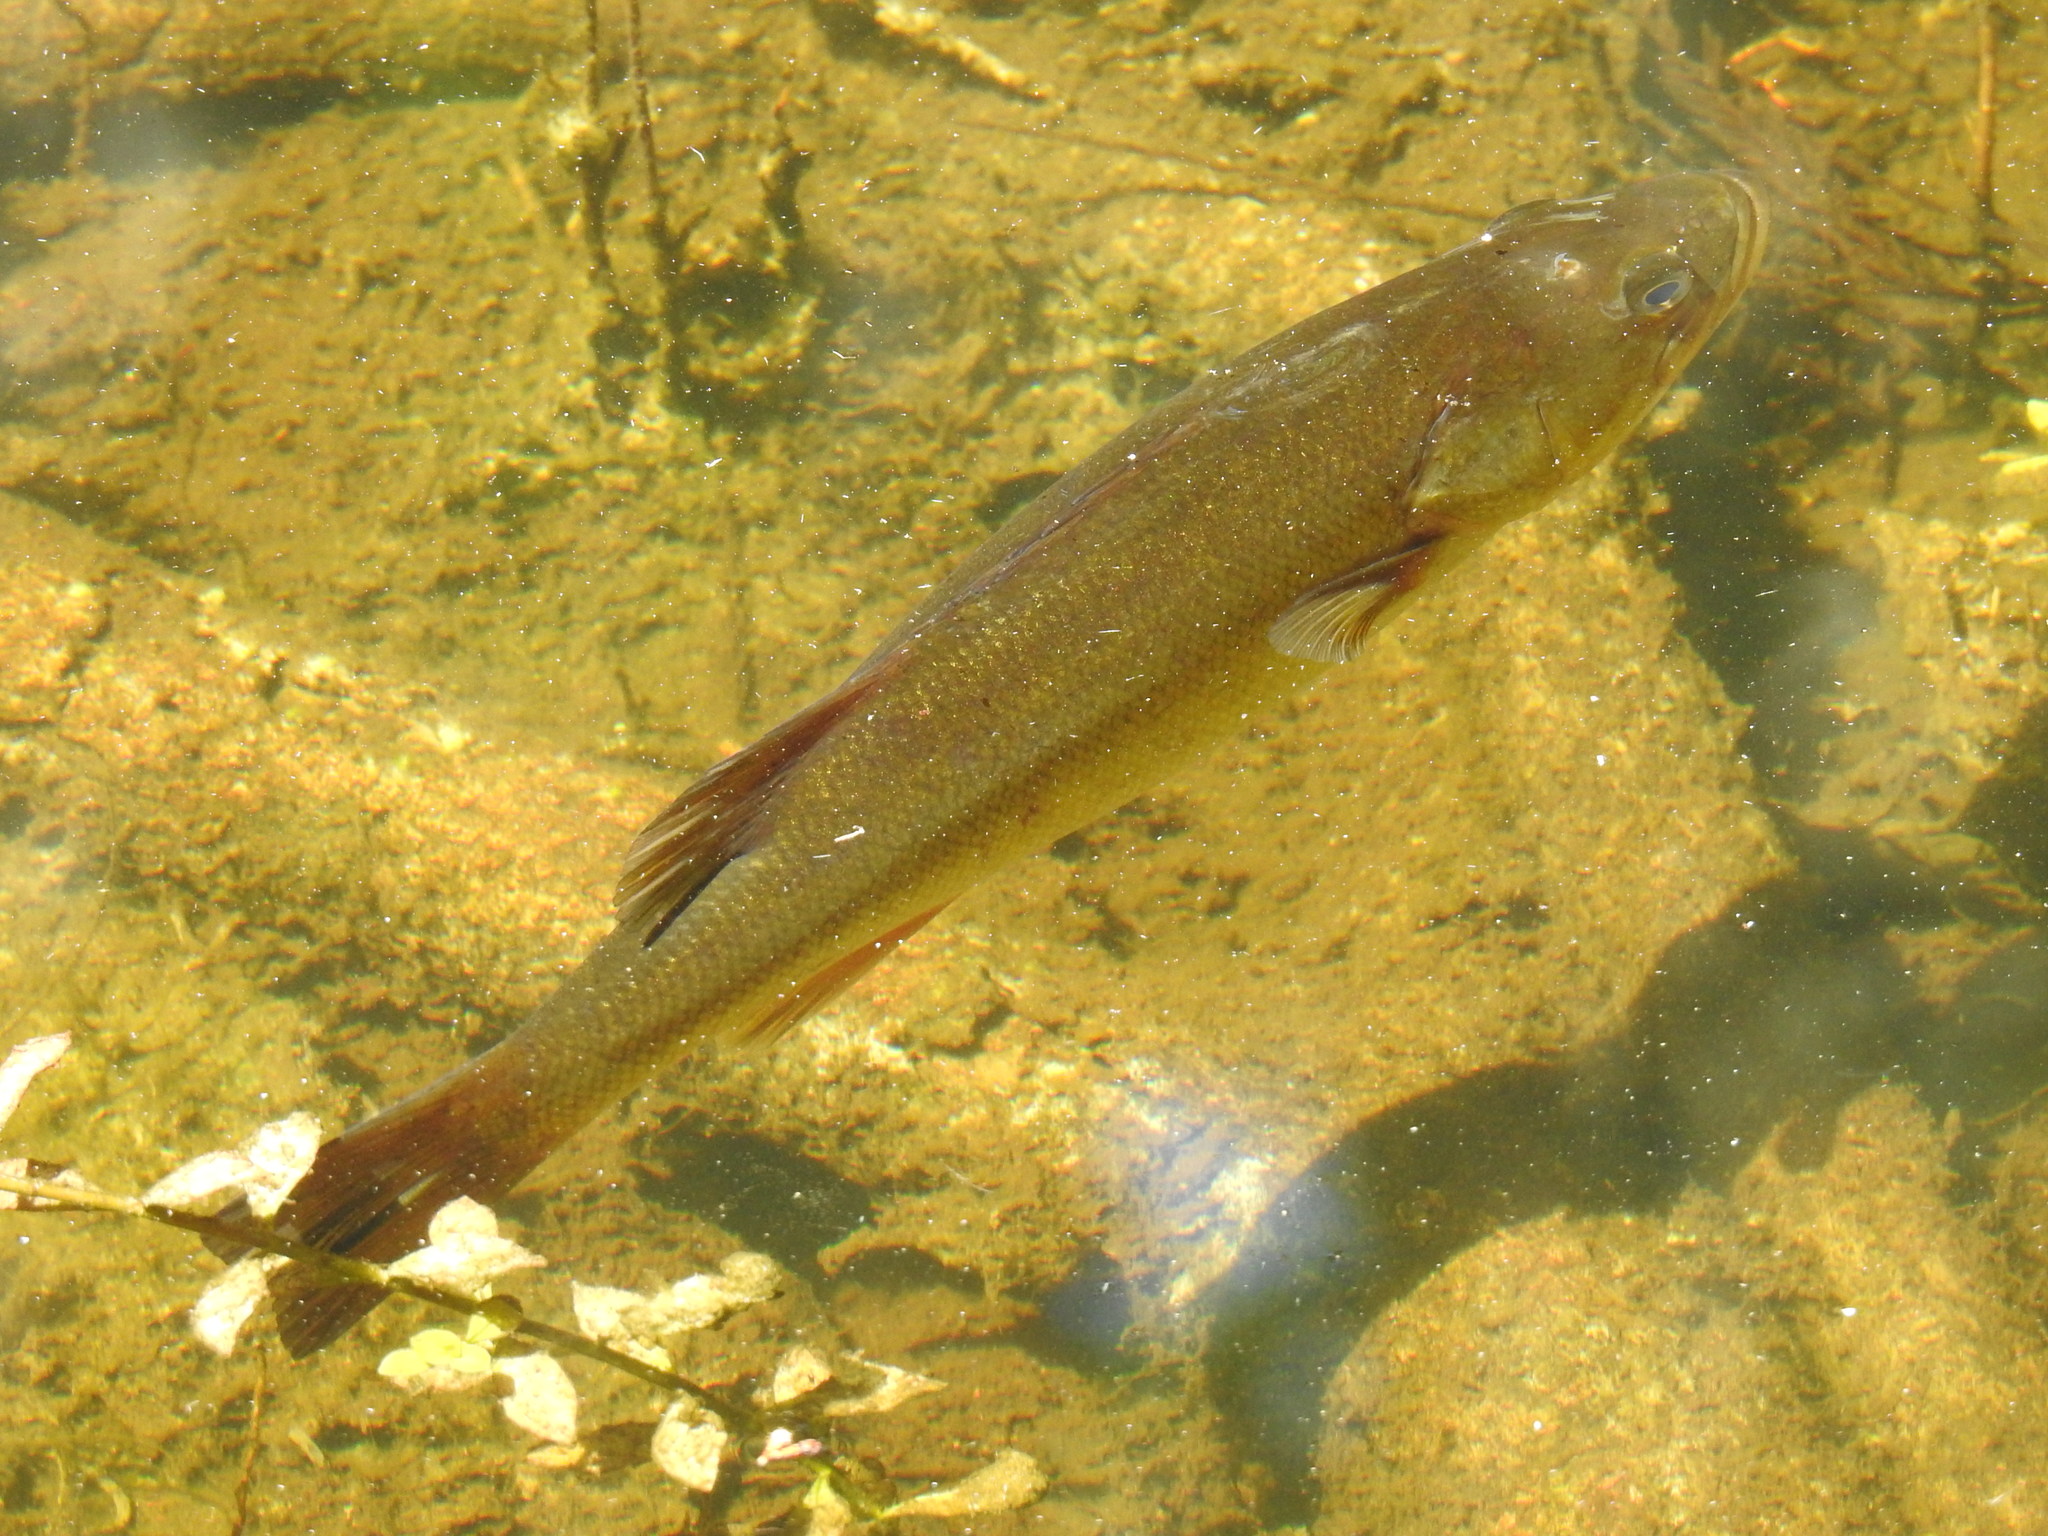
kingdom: Animalia
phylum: Chordata
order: Perciformes
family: Centrarchidae
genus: Micropterus
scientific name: Micropterus salmoides
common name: Largemouth bass
